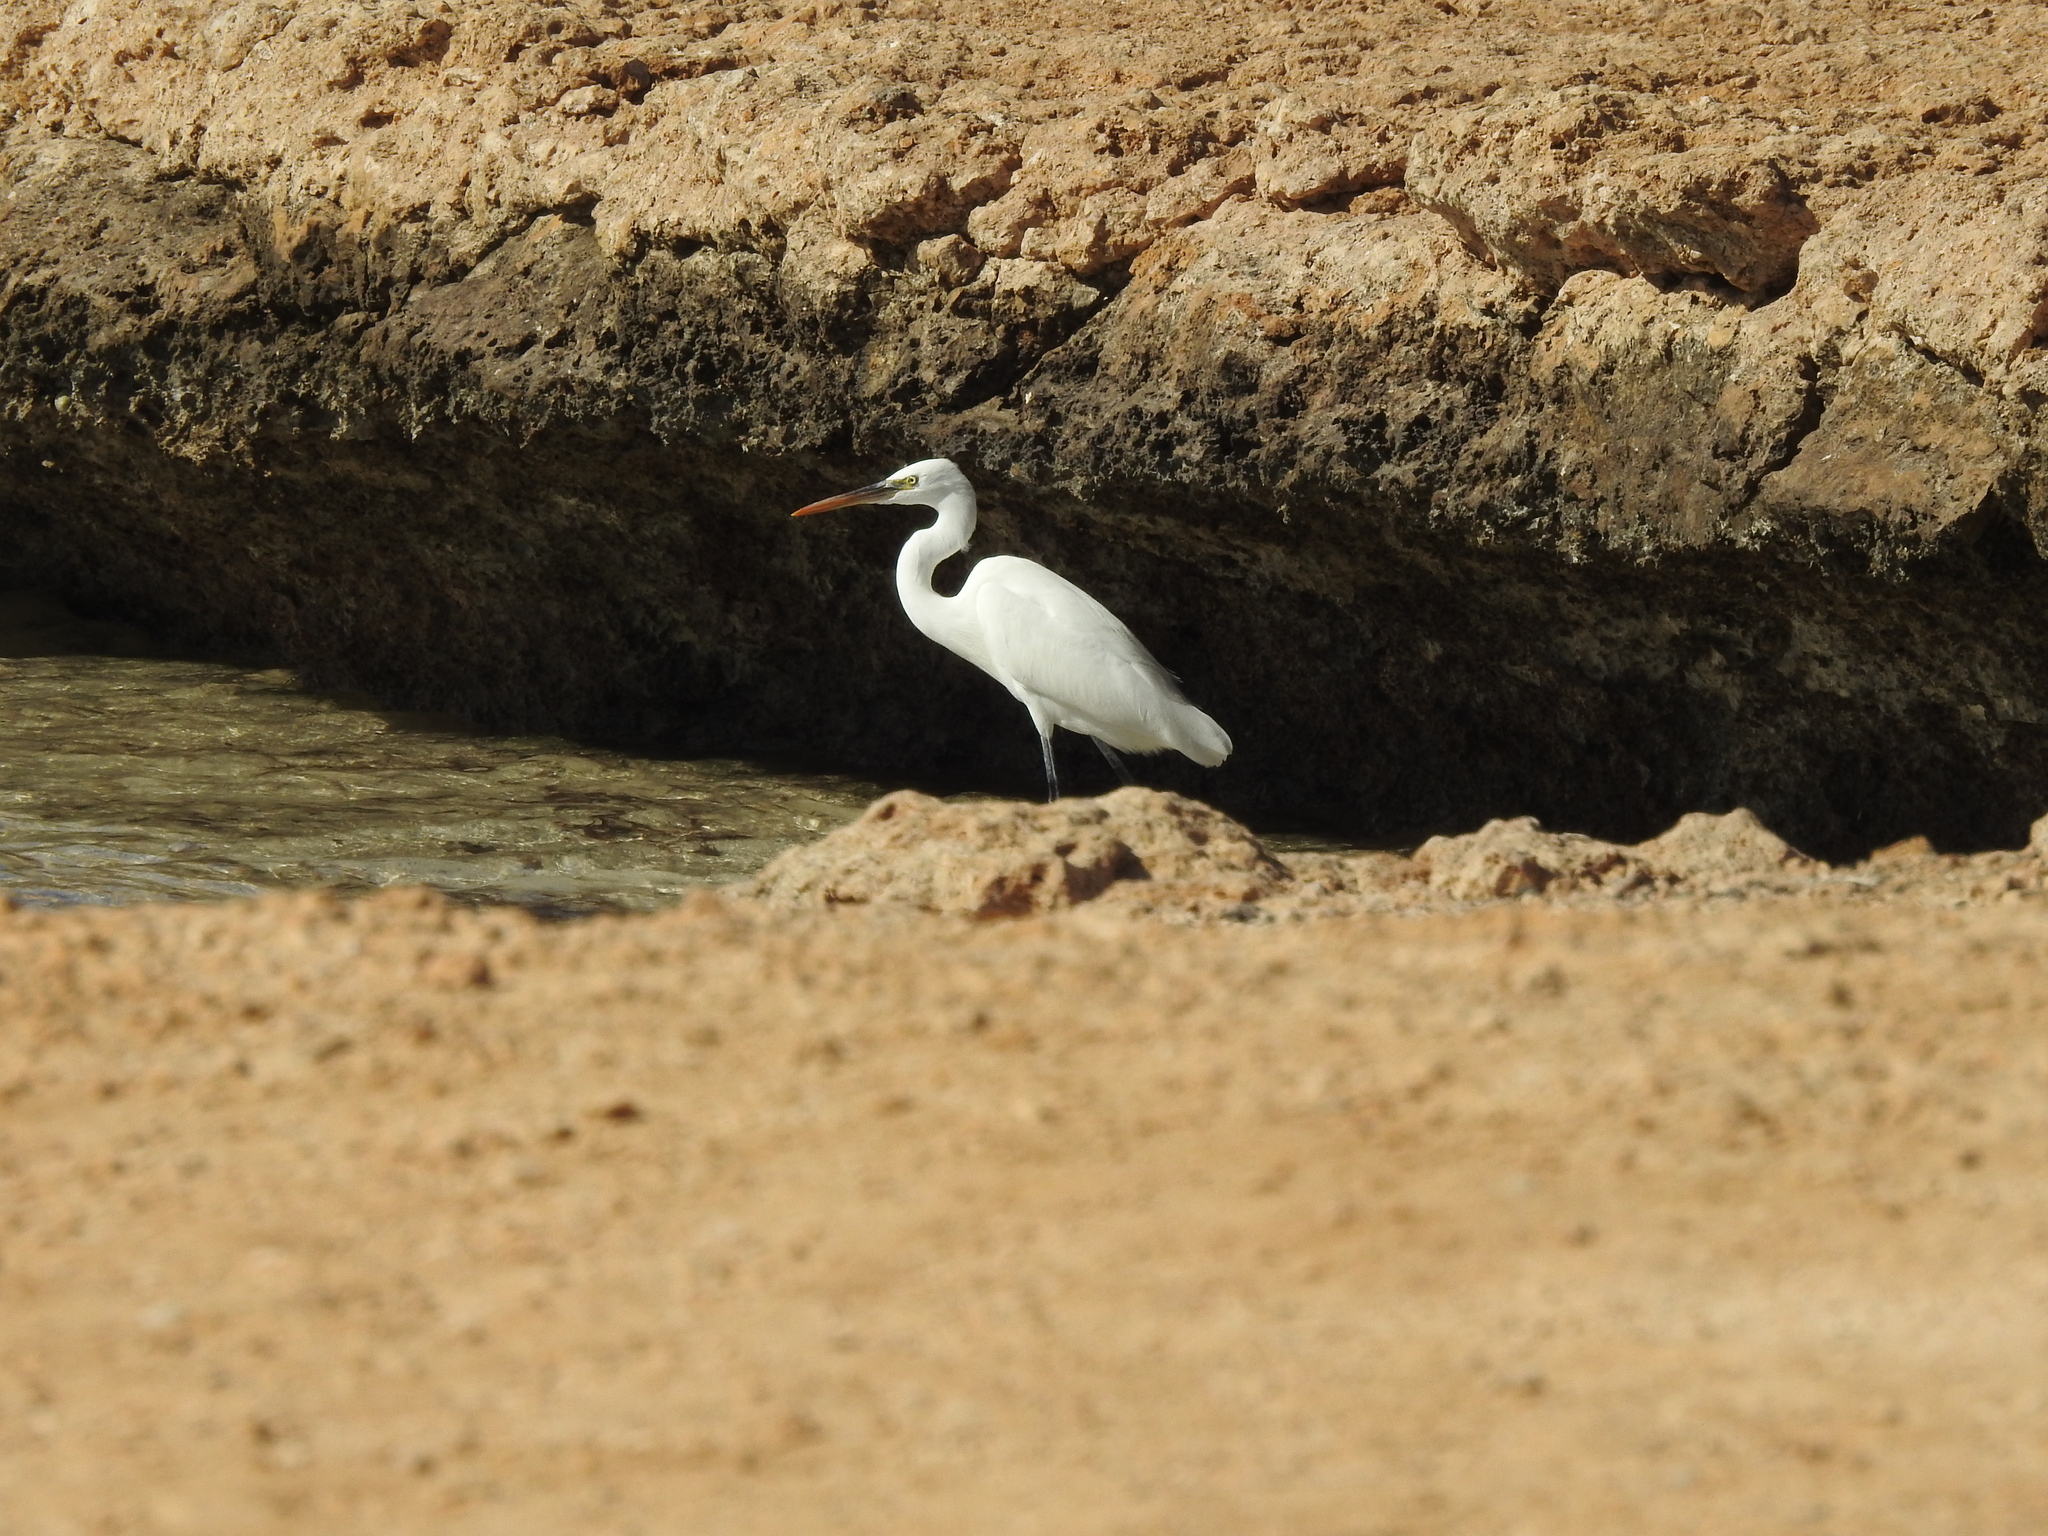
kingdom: Animalia
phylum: Chordata
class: Aves
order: Pelecaniformes
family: Ardeidae
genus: Egretta
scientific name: Egretta gularis
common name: Western reef-heron
